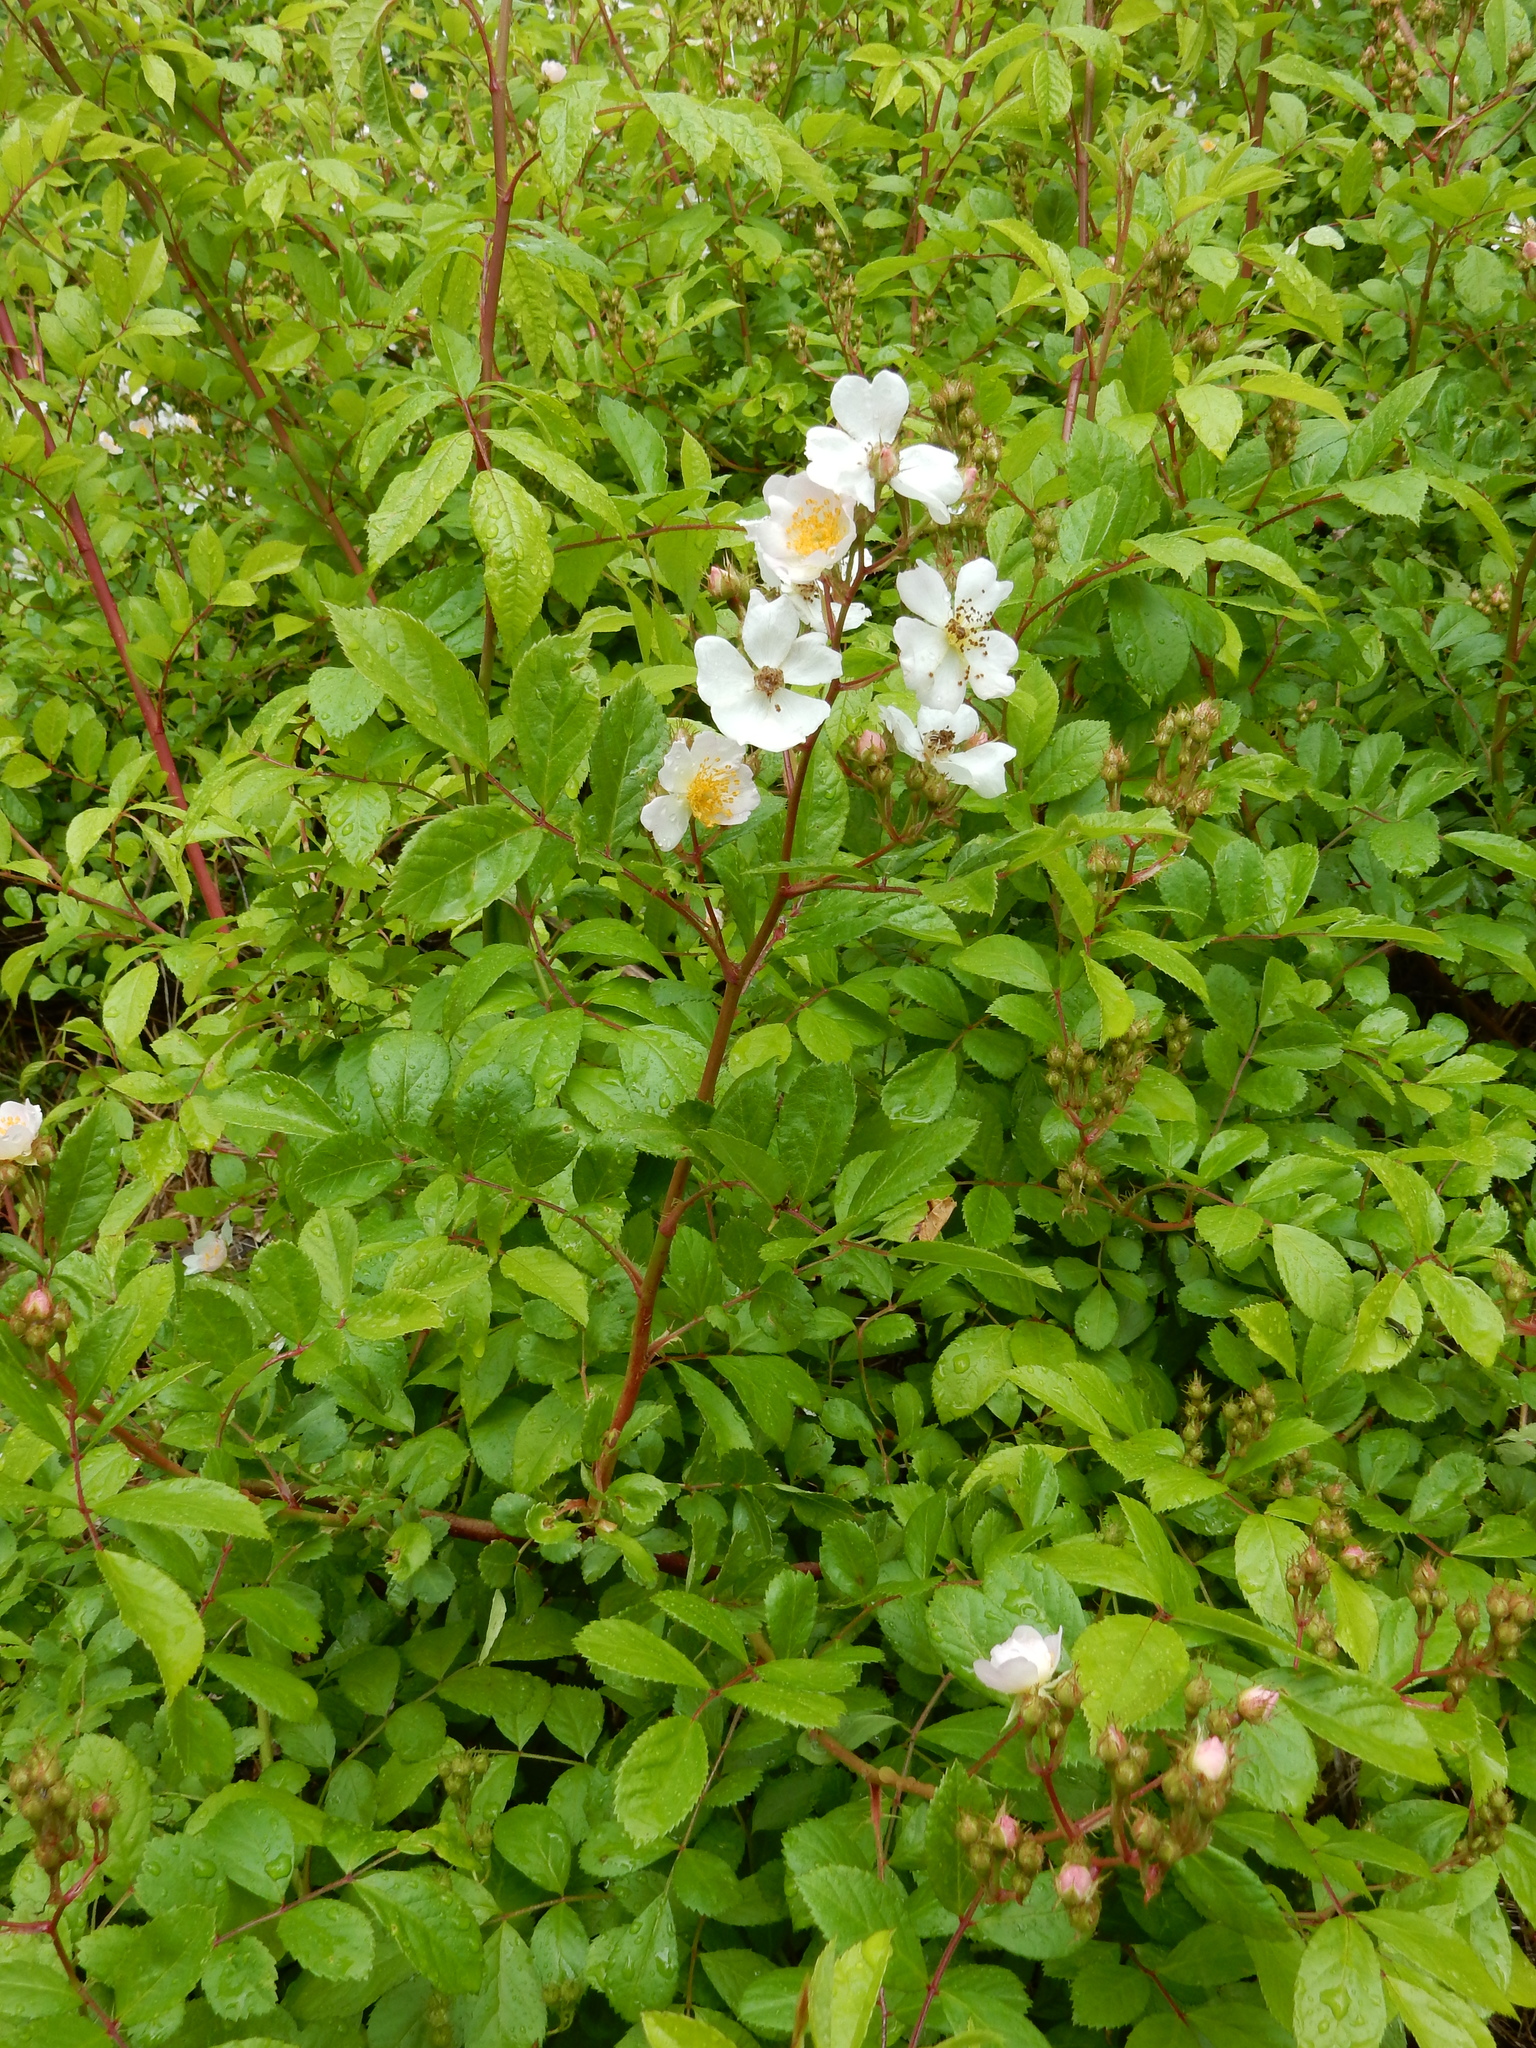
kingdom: Plantae
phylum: Tracheophyta
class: Magnoliopsida
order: Rosales
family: Rosaceae
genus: Rosa
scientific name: Rosa multiflora
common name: Multiflora rose
